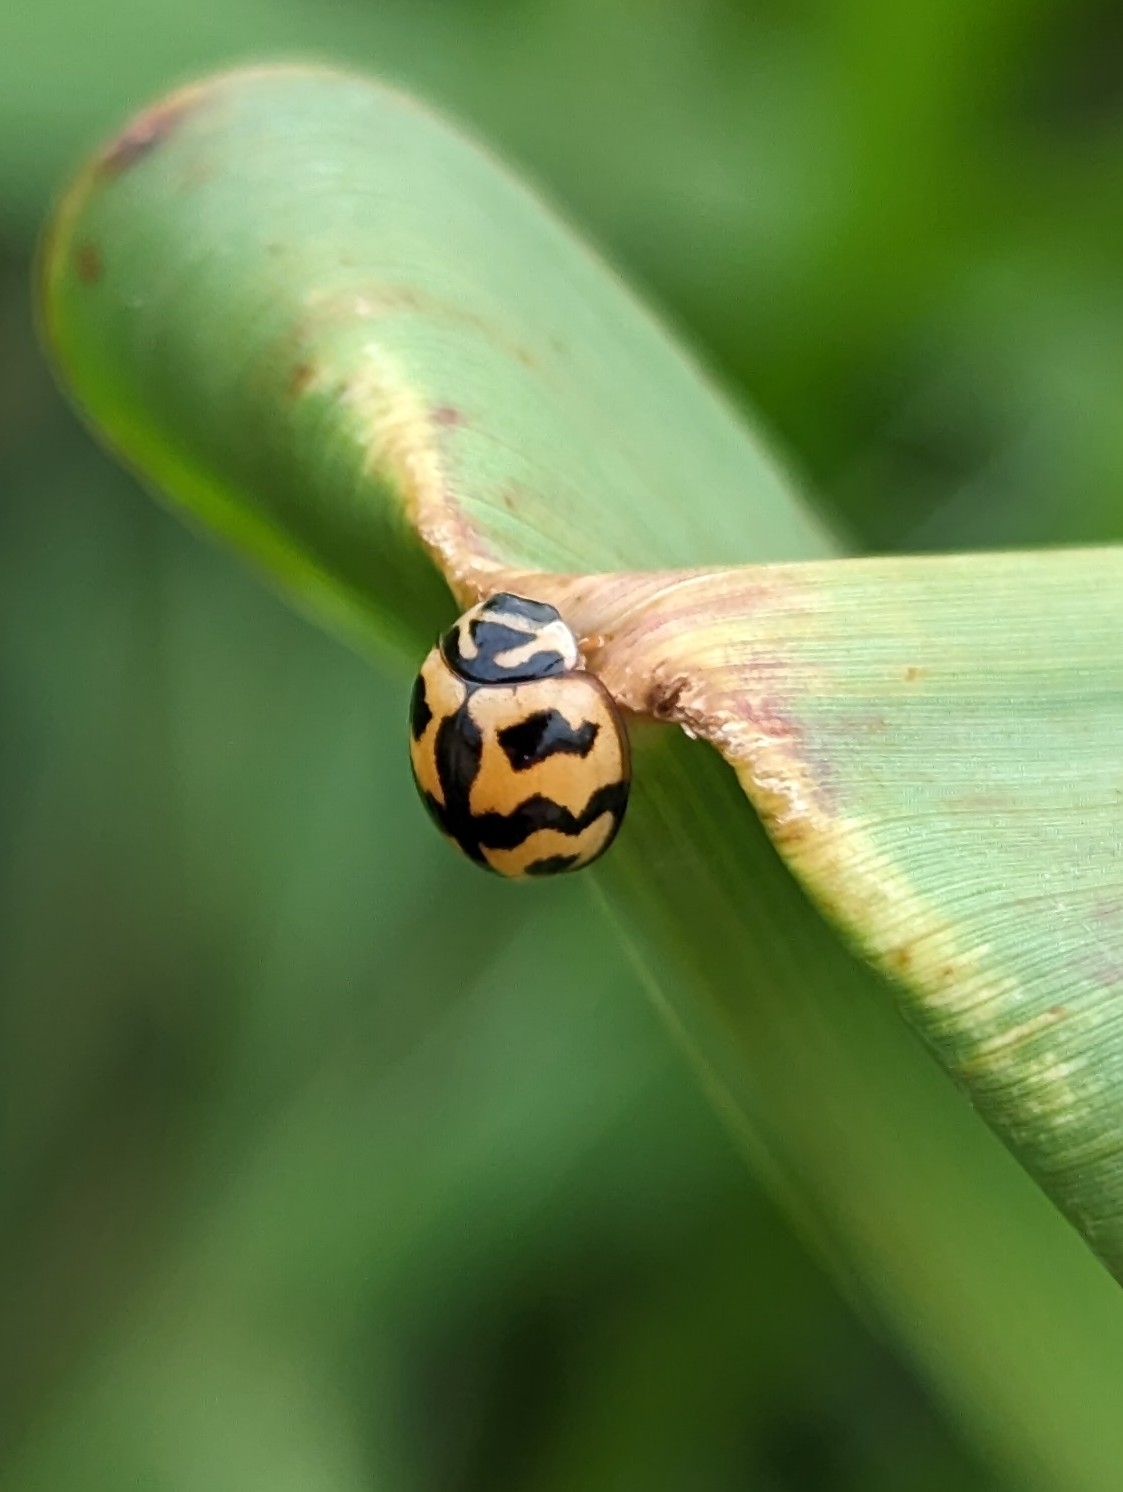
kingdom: Animalia
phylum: Arthropoda
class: Insecta
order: Coleoptera
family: Coccinellidae
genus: Cheilomenes
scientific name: Cheilomenes sexmaculata
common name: Ladybird beetle
